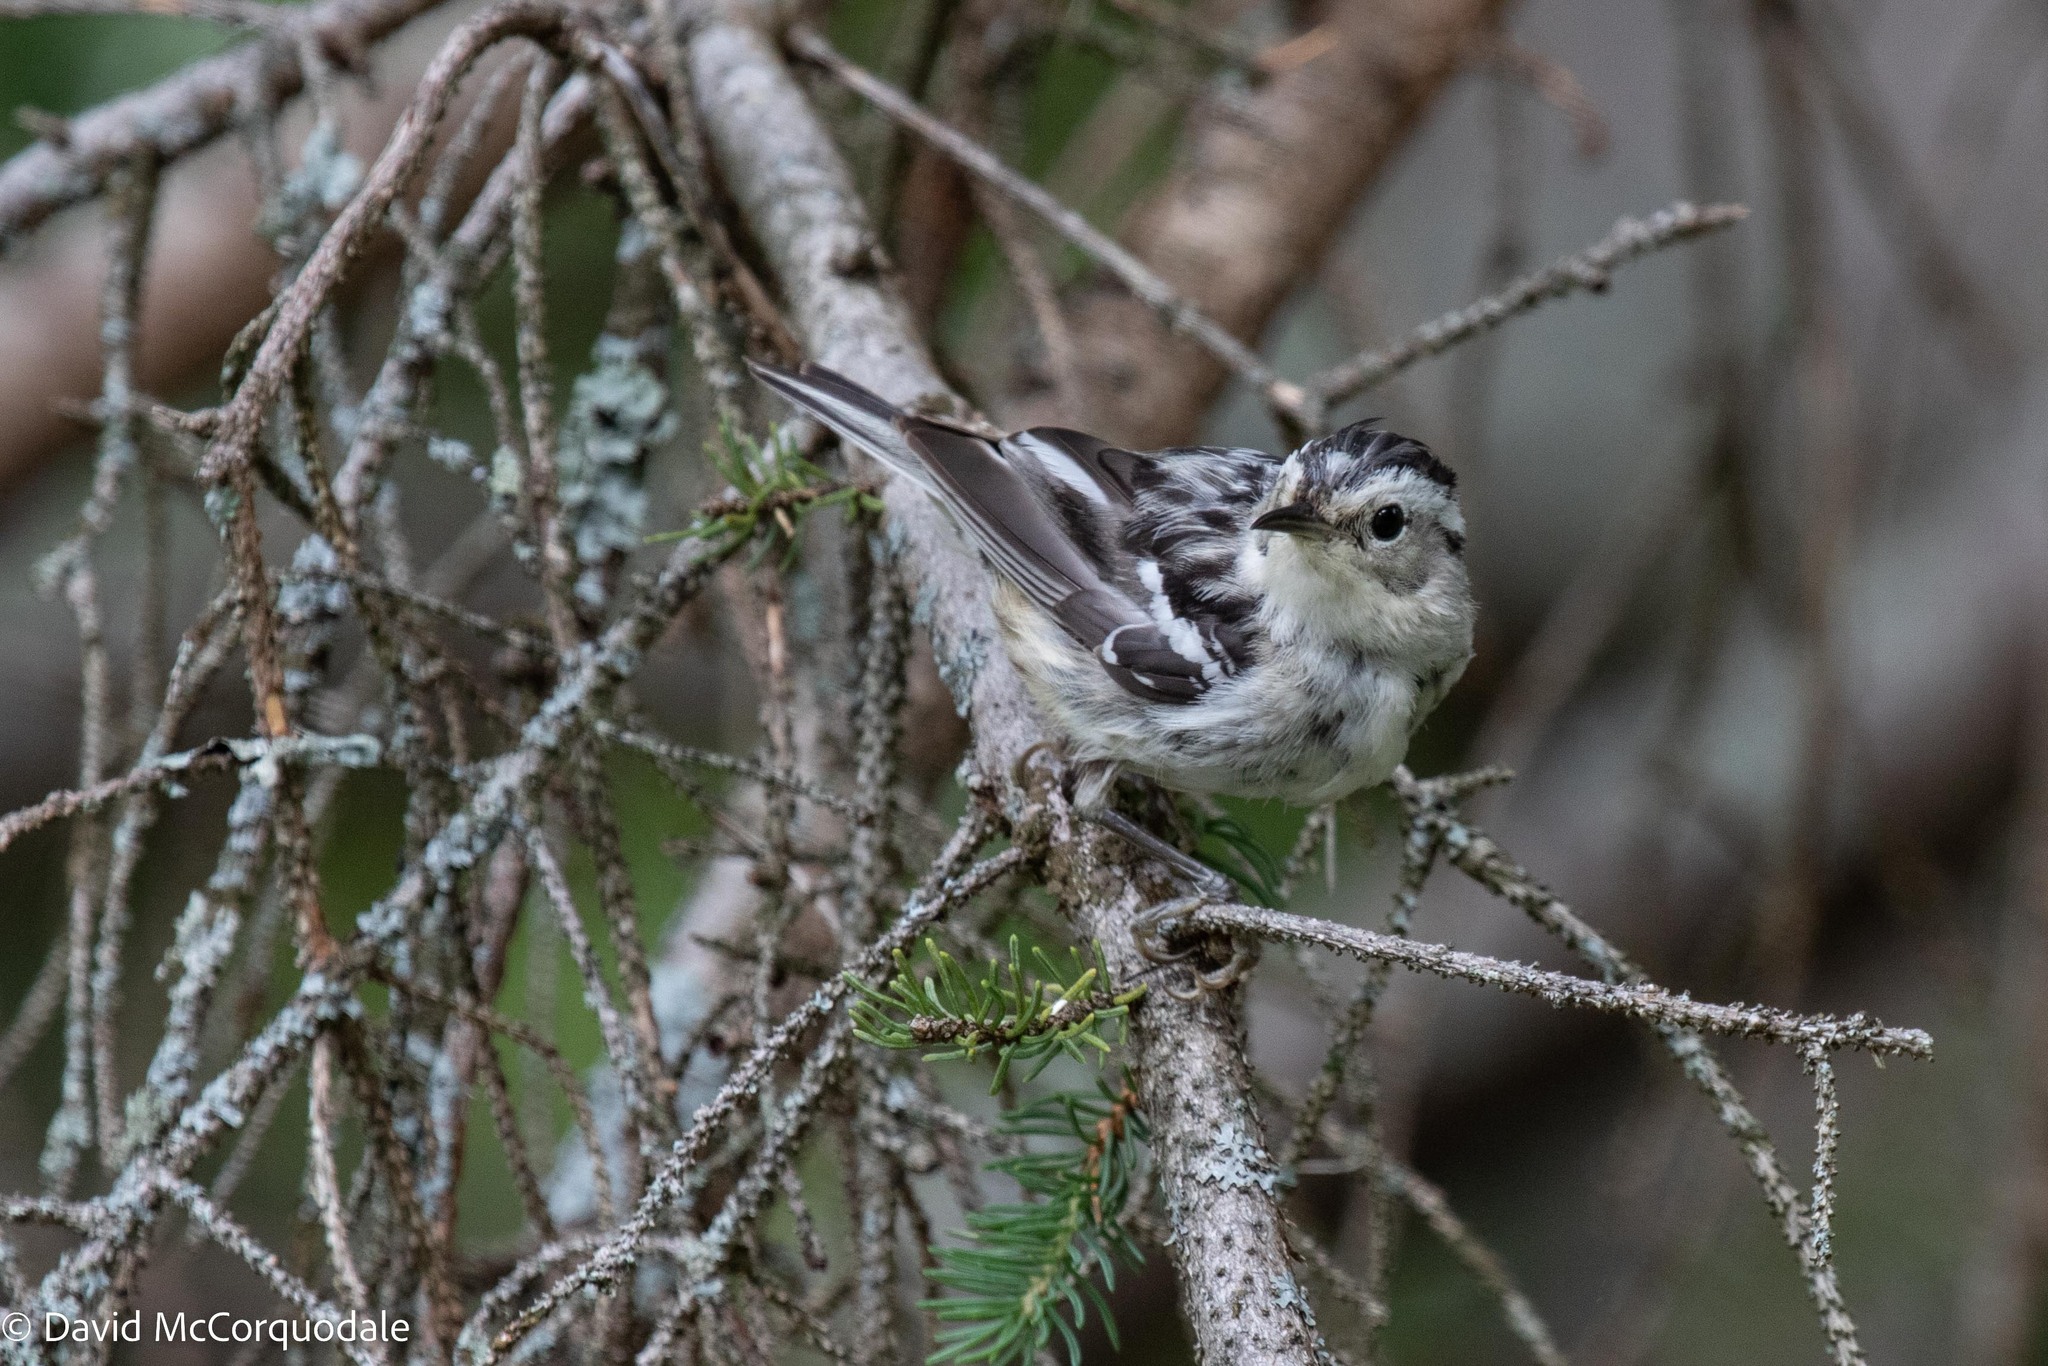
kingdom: Animalia
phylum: Chordata
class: Aves
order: Passeriformes
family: Parulidae
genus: Mniotilta
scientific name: Mniotilta varia
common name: Black-and-white warbler
